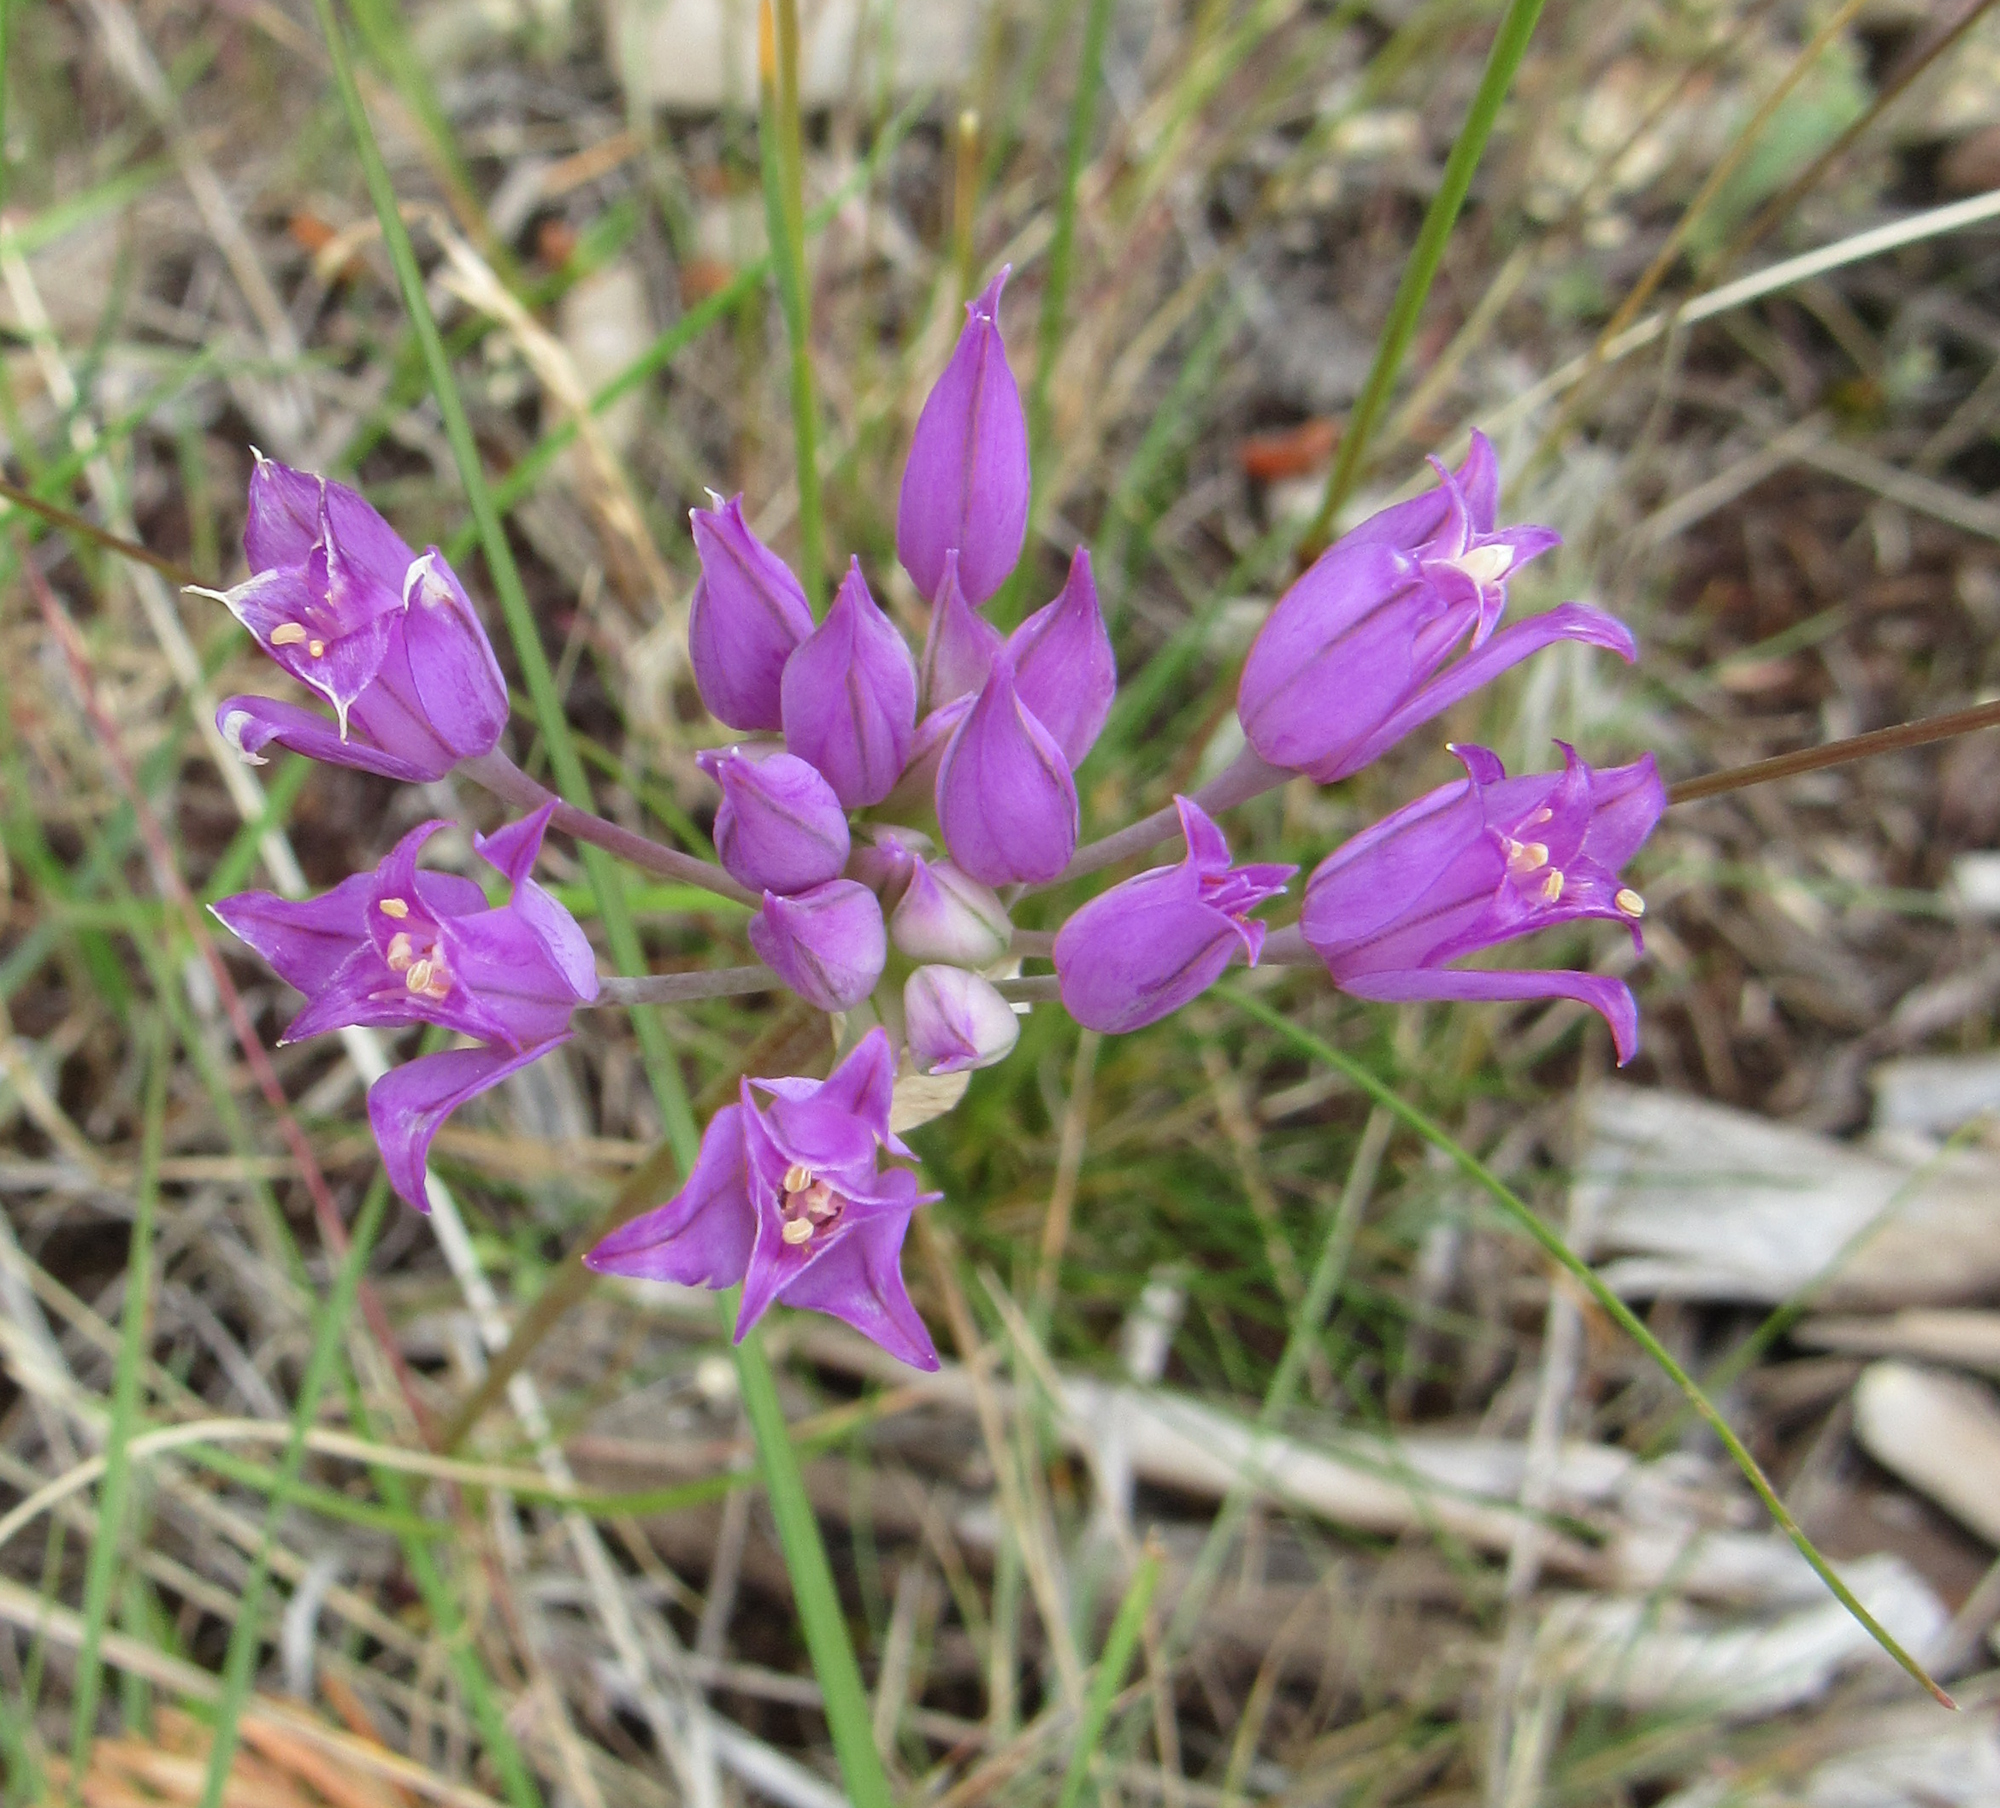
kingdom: Plantae
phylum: Tracheophyta
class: Liliopsida
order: Asparagales
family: Amaryllidaceae
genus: Allium
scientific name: Allium acuminatum
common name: Hooker's onion
